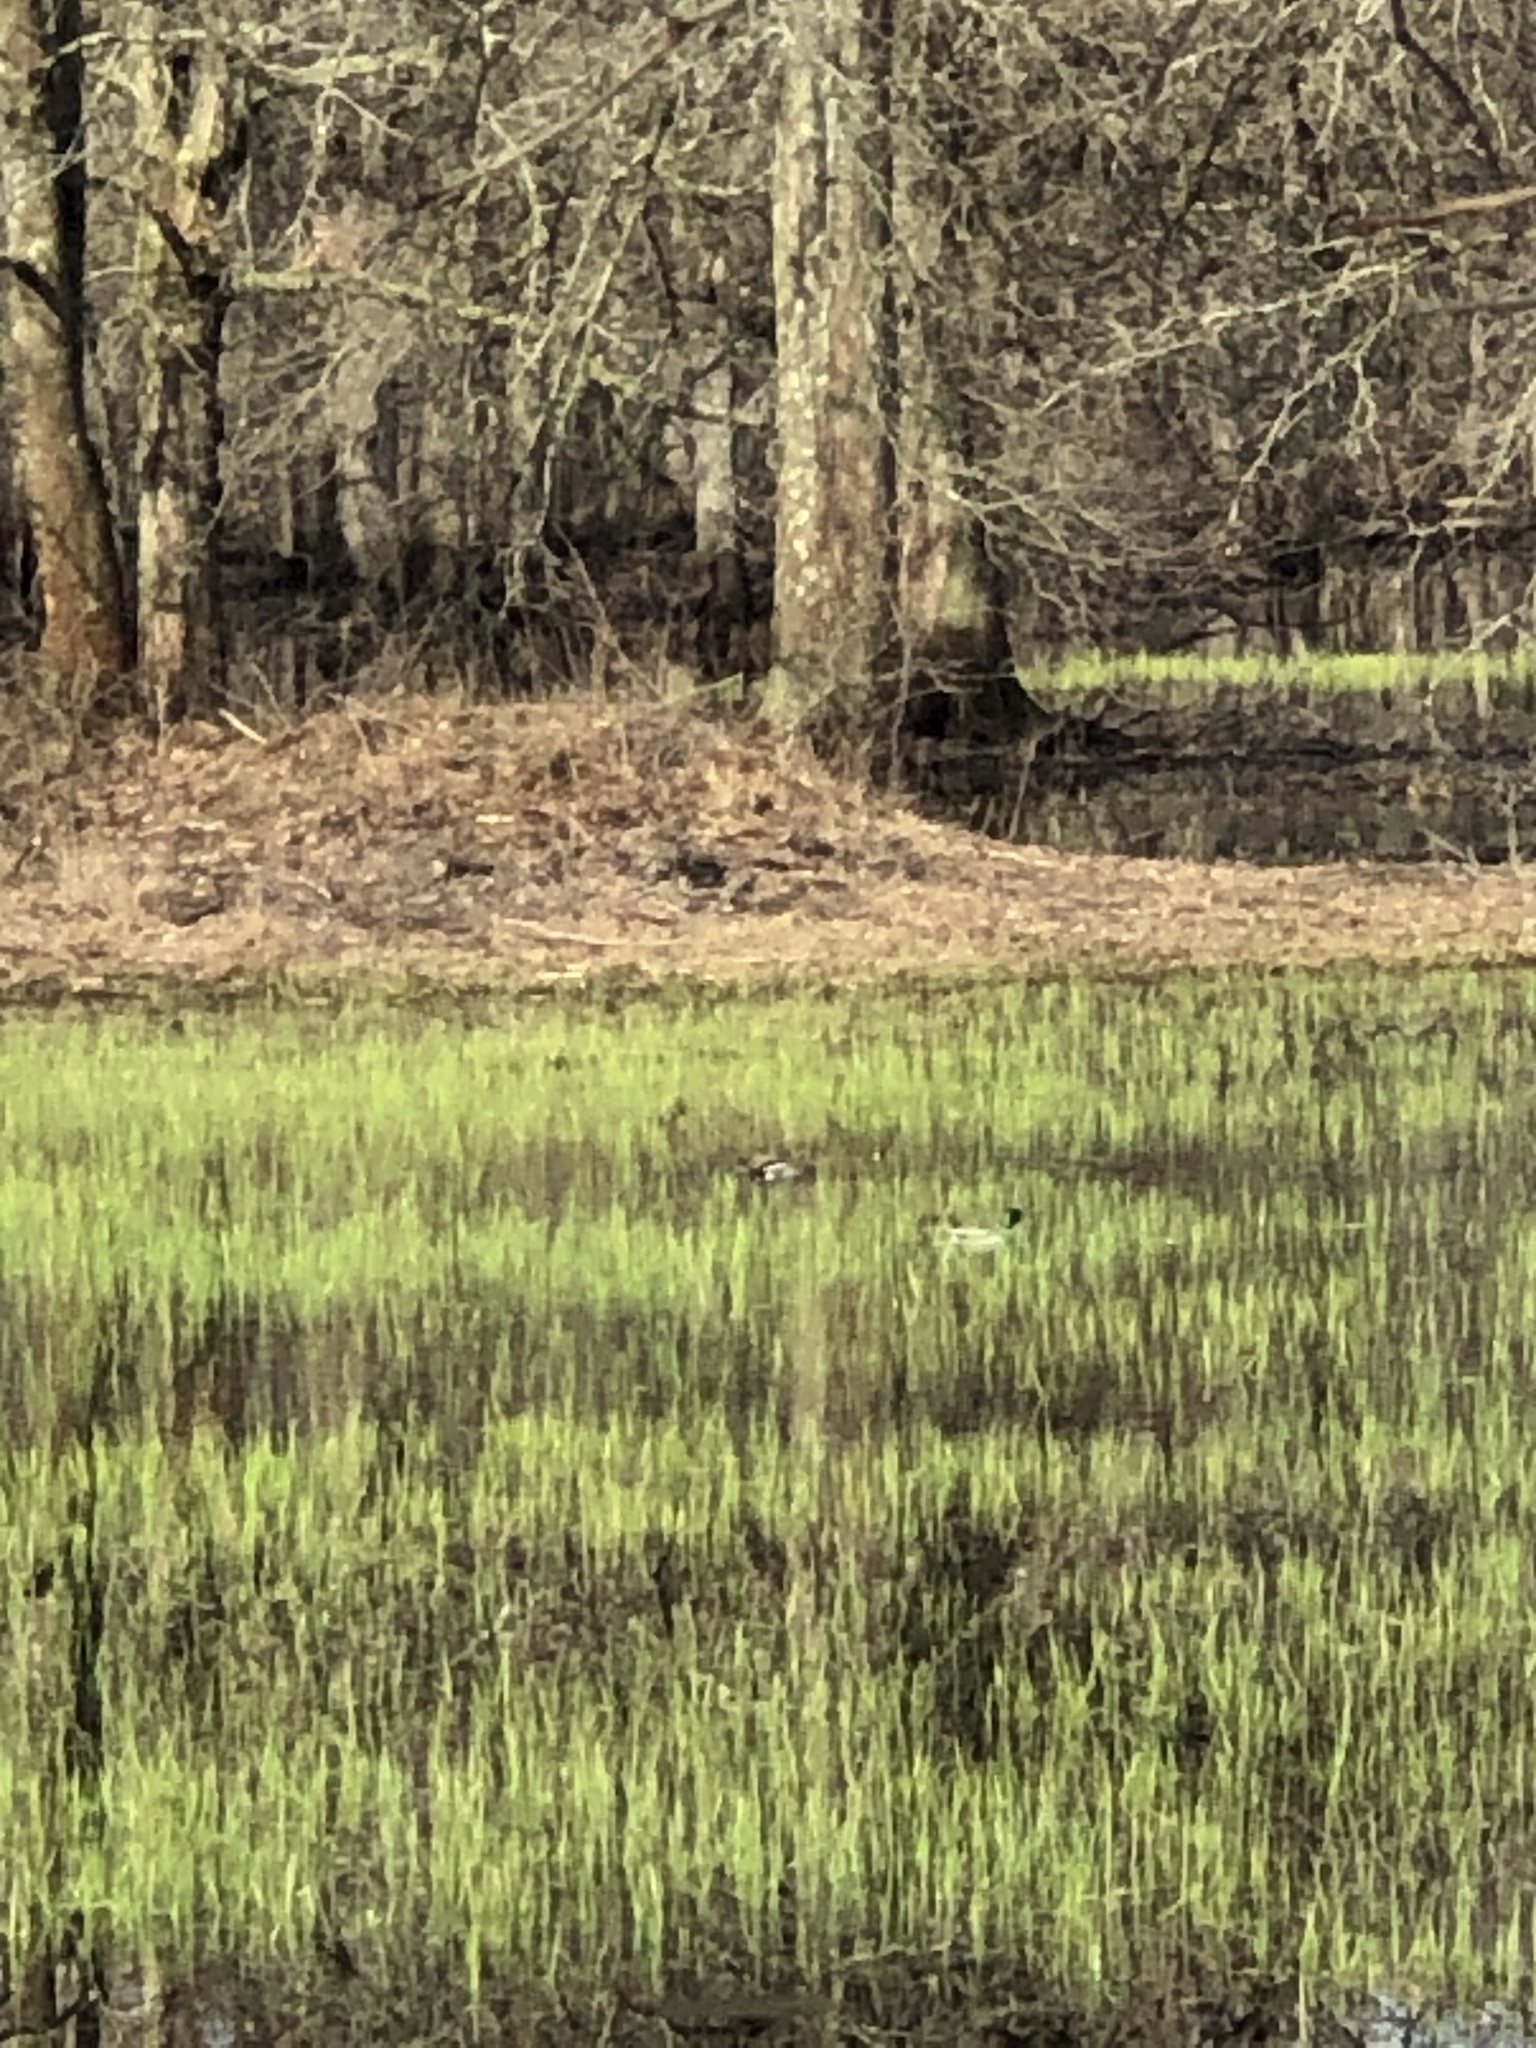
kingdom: Animalia
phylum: Chordata
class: Aves
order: Anseriformes
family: Anatidae
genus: Anas
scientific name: Anas platyrhynchos
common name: Mallard
